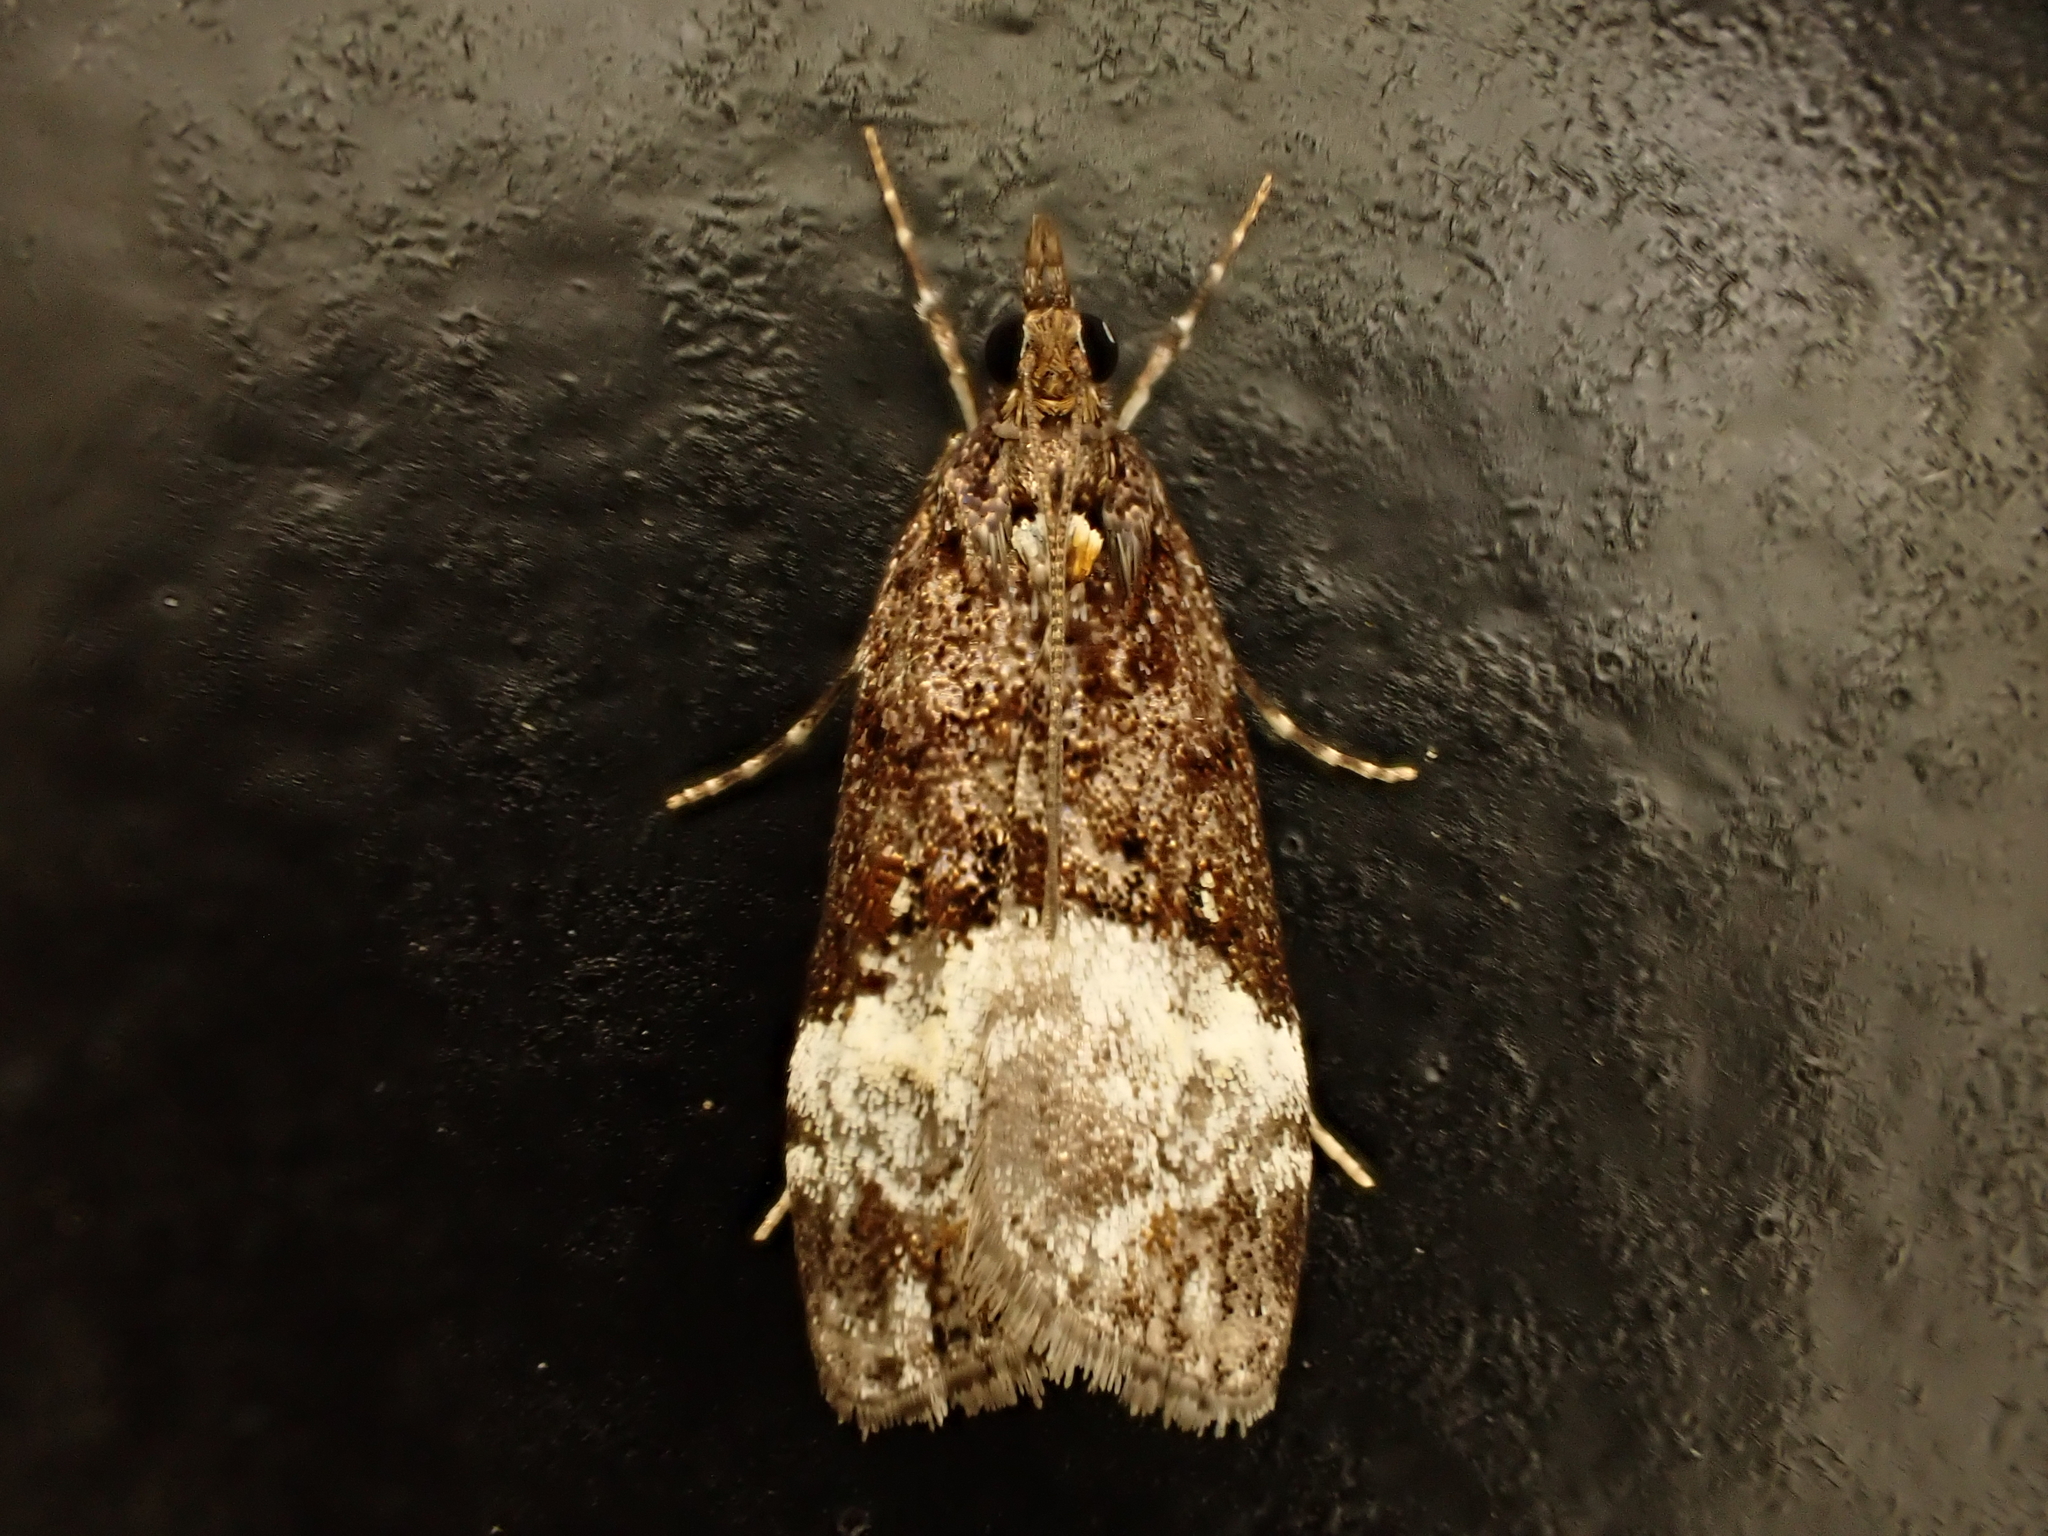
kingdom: Animalia
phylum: Arthropoda
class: Insecta
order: Lepidoptera
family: Crambidae
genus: Scoparia
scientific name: Scoparia minusculalis
